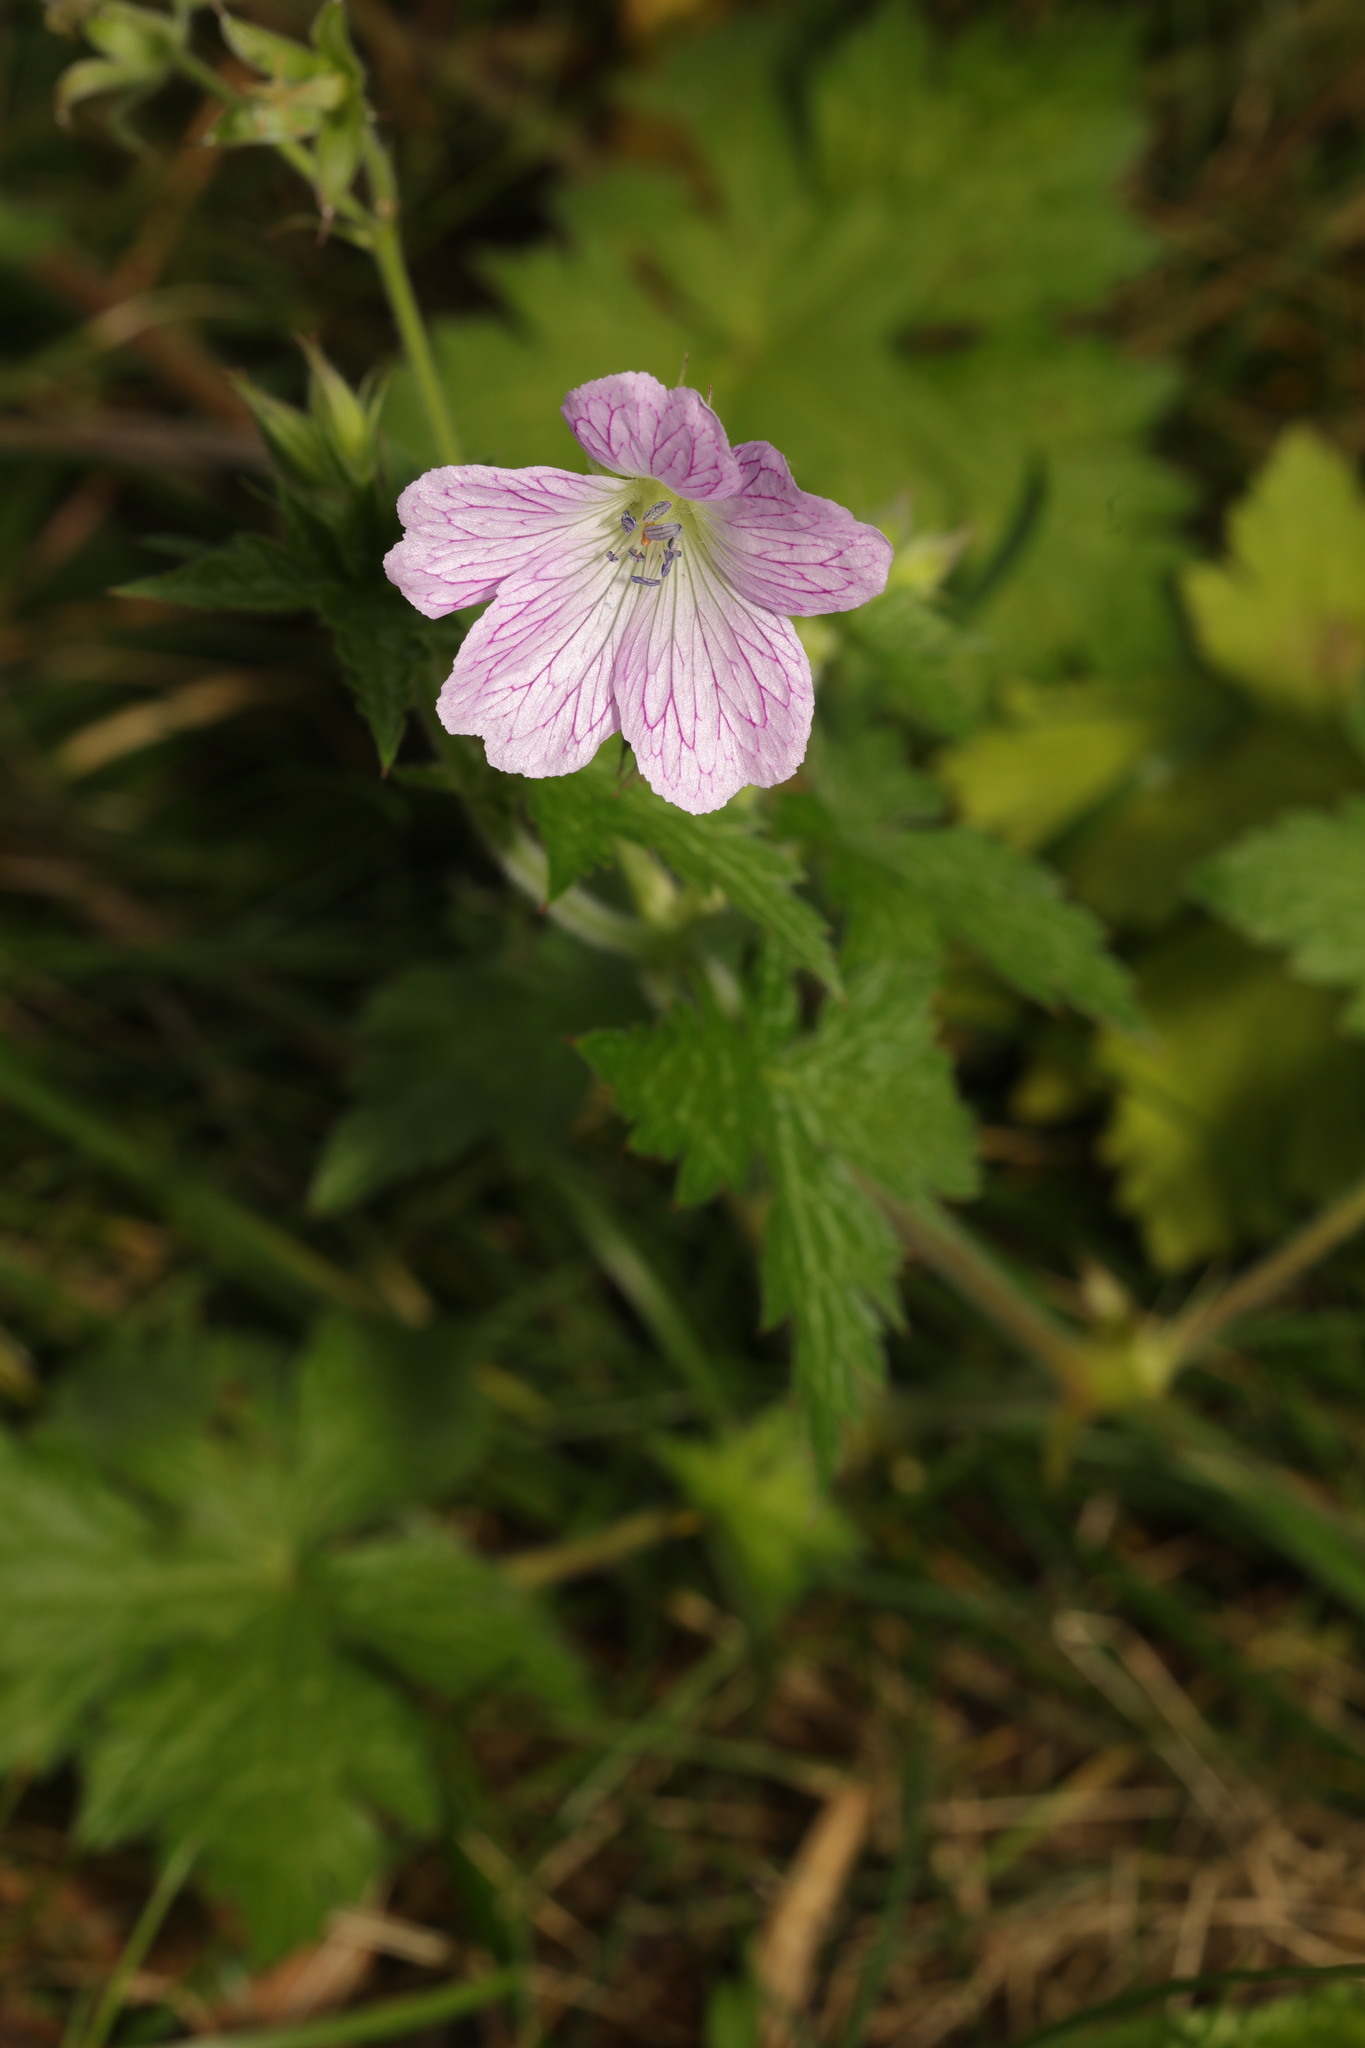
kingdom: Plantae
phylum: Tracheophyta
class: Magnoliopsida
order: Geraniales
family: Geraniaceae
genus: Geranium
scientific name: Geranium oxonianum
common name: Druce's crane's-bill
